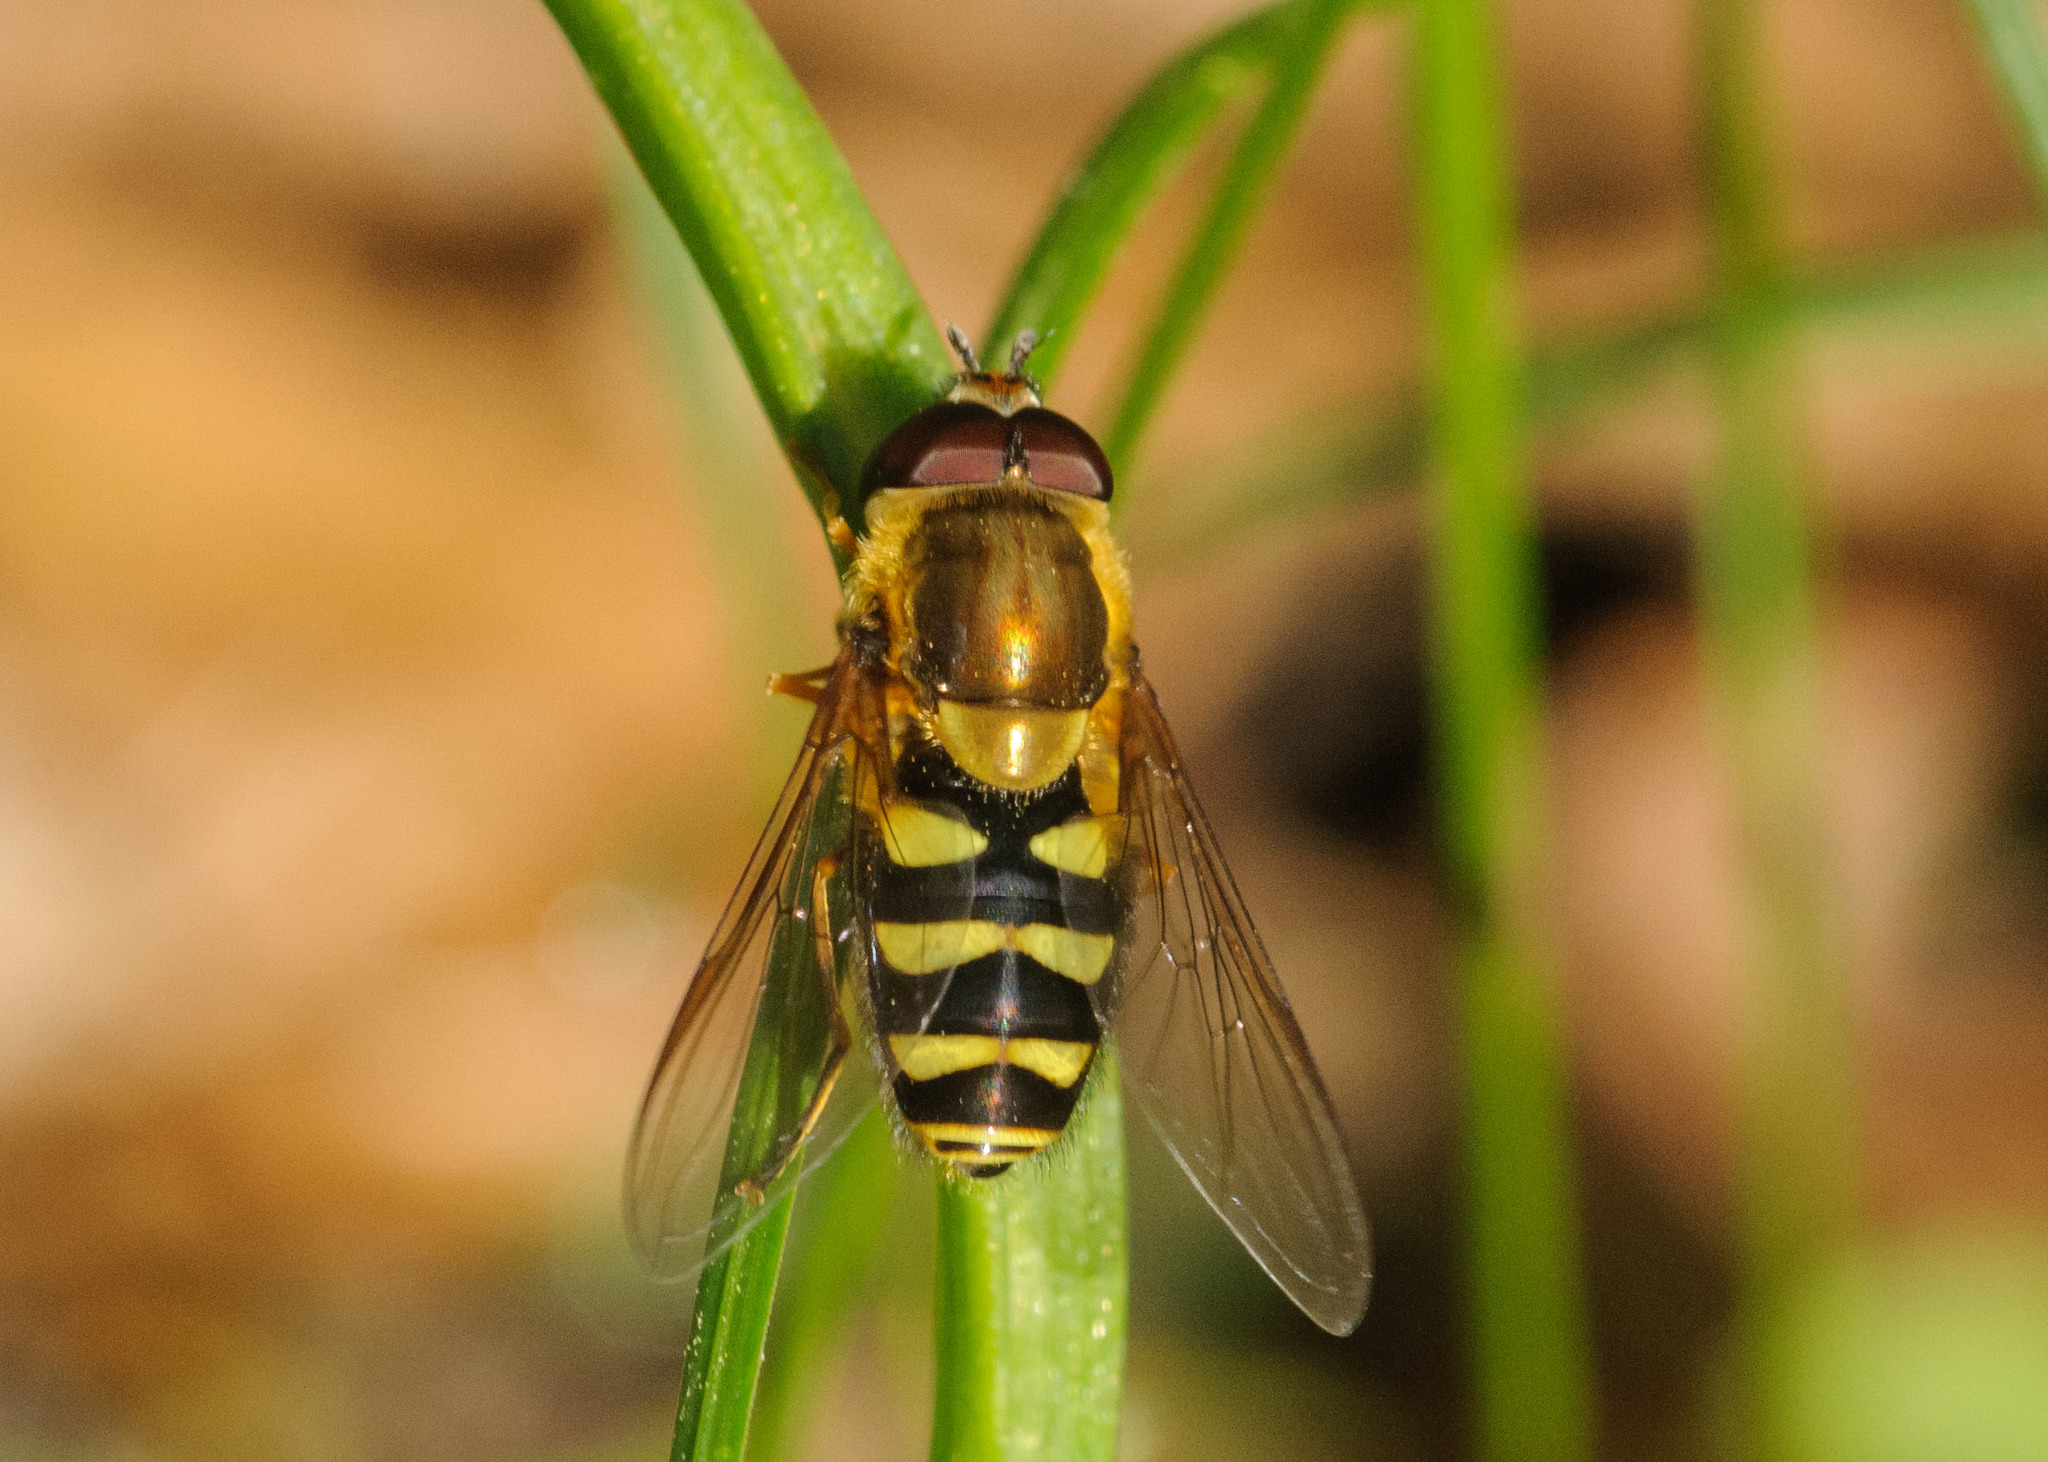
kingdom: Animalia
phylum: Arthropoda
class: Insecta
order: Diptera
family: Syrphidae
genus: Syrphus
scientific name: Syrphus opinator
